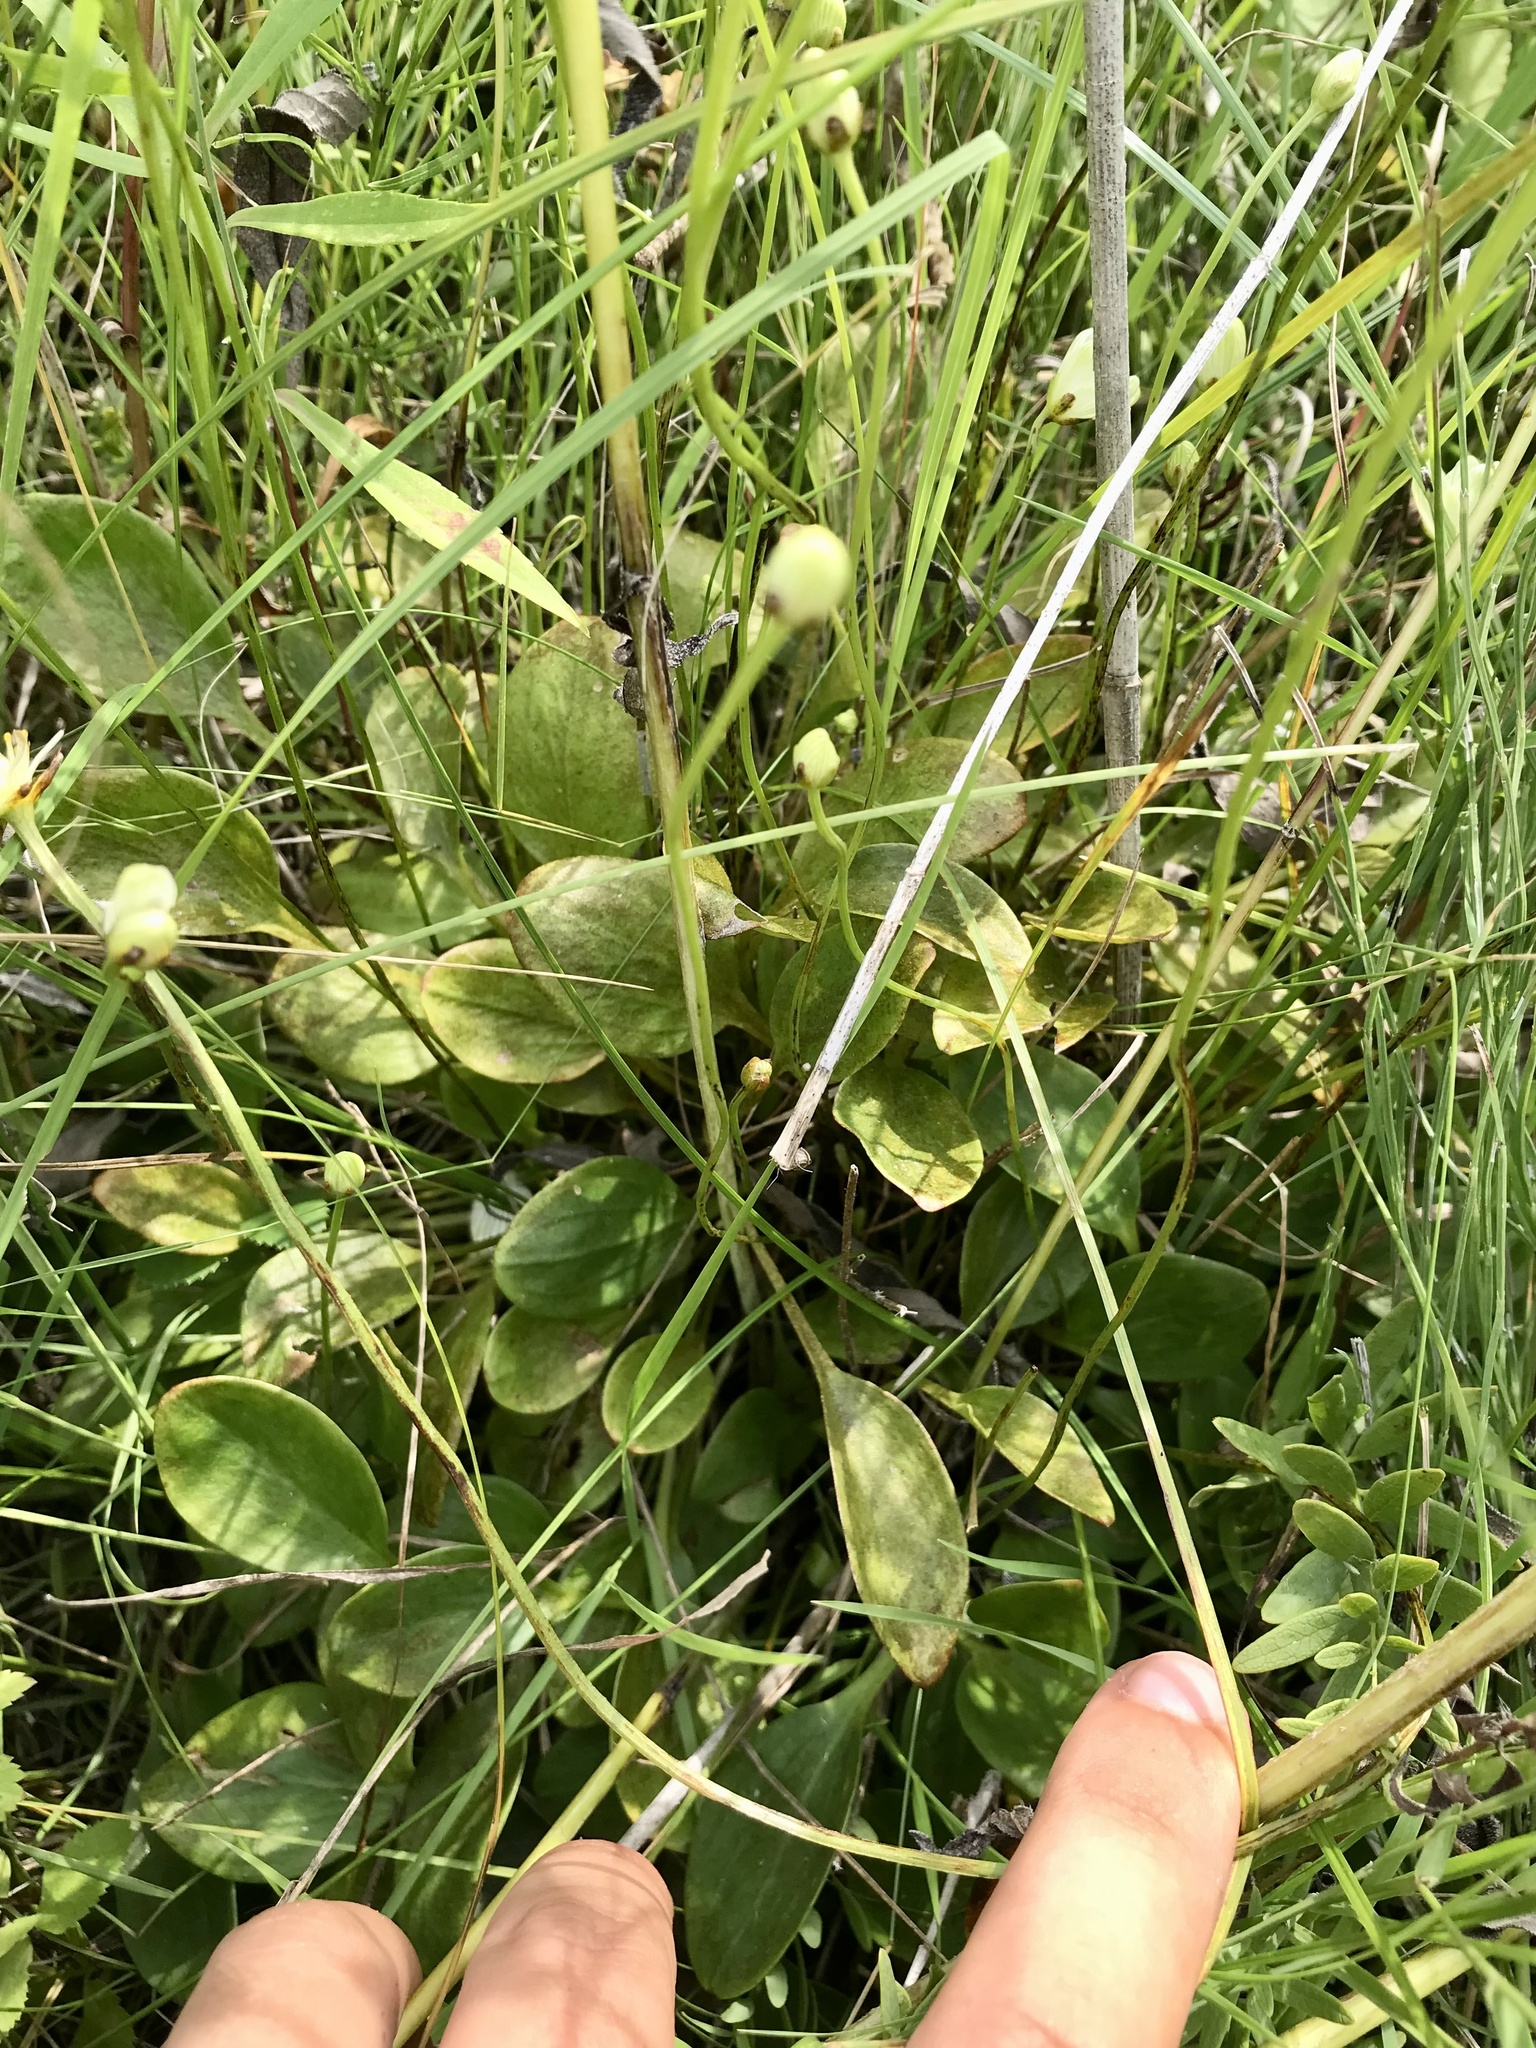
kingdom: Plantae
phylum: Tracheophyta
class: Magnoliopsida
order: Celastrales
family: Parnassiaceae
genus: Parnassia
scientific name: Parnassia glauca
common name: American grass-of-parnassus
